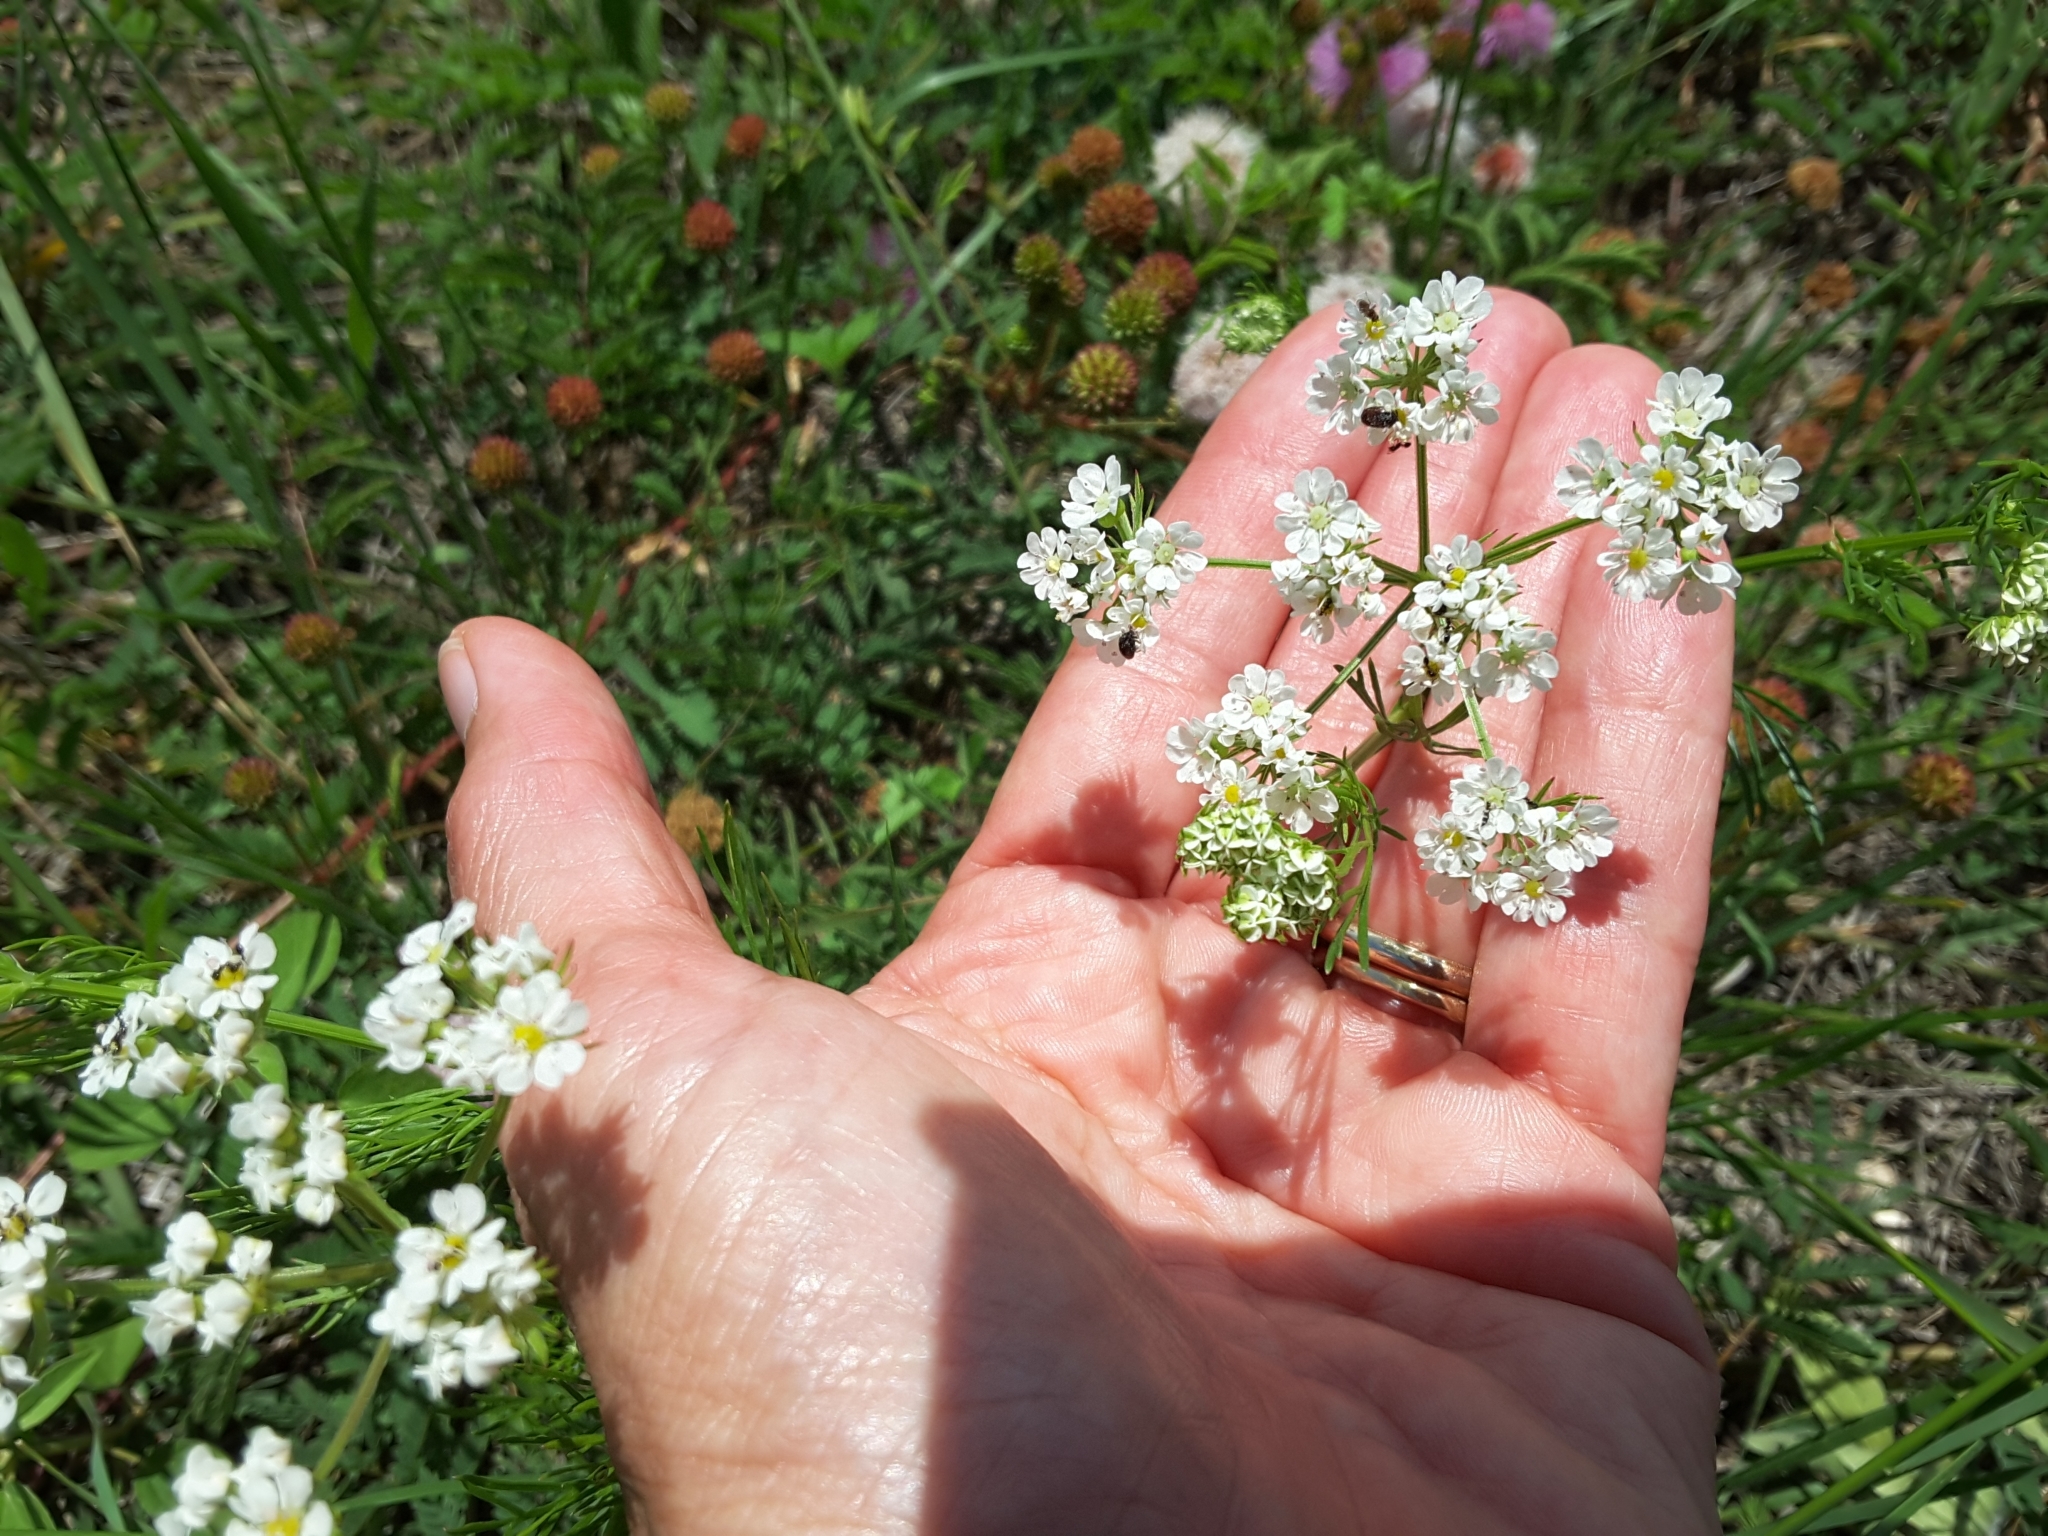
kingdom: Plantae
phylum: Tracheophyta
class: Magnoliopsida
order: Apiales
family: Apiaceae
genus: Atrema
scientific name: Atrema americanum
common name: Prairie-bishop
